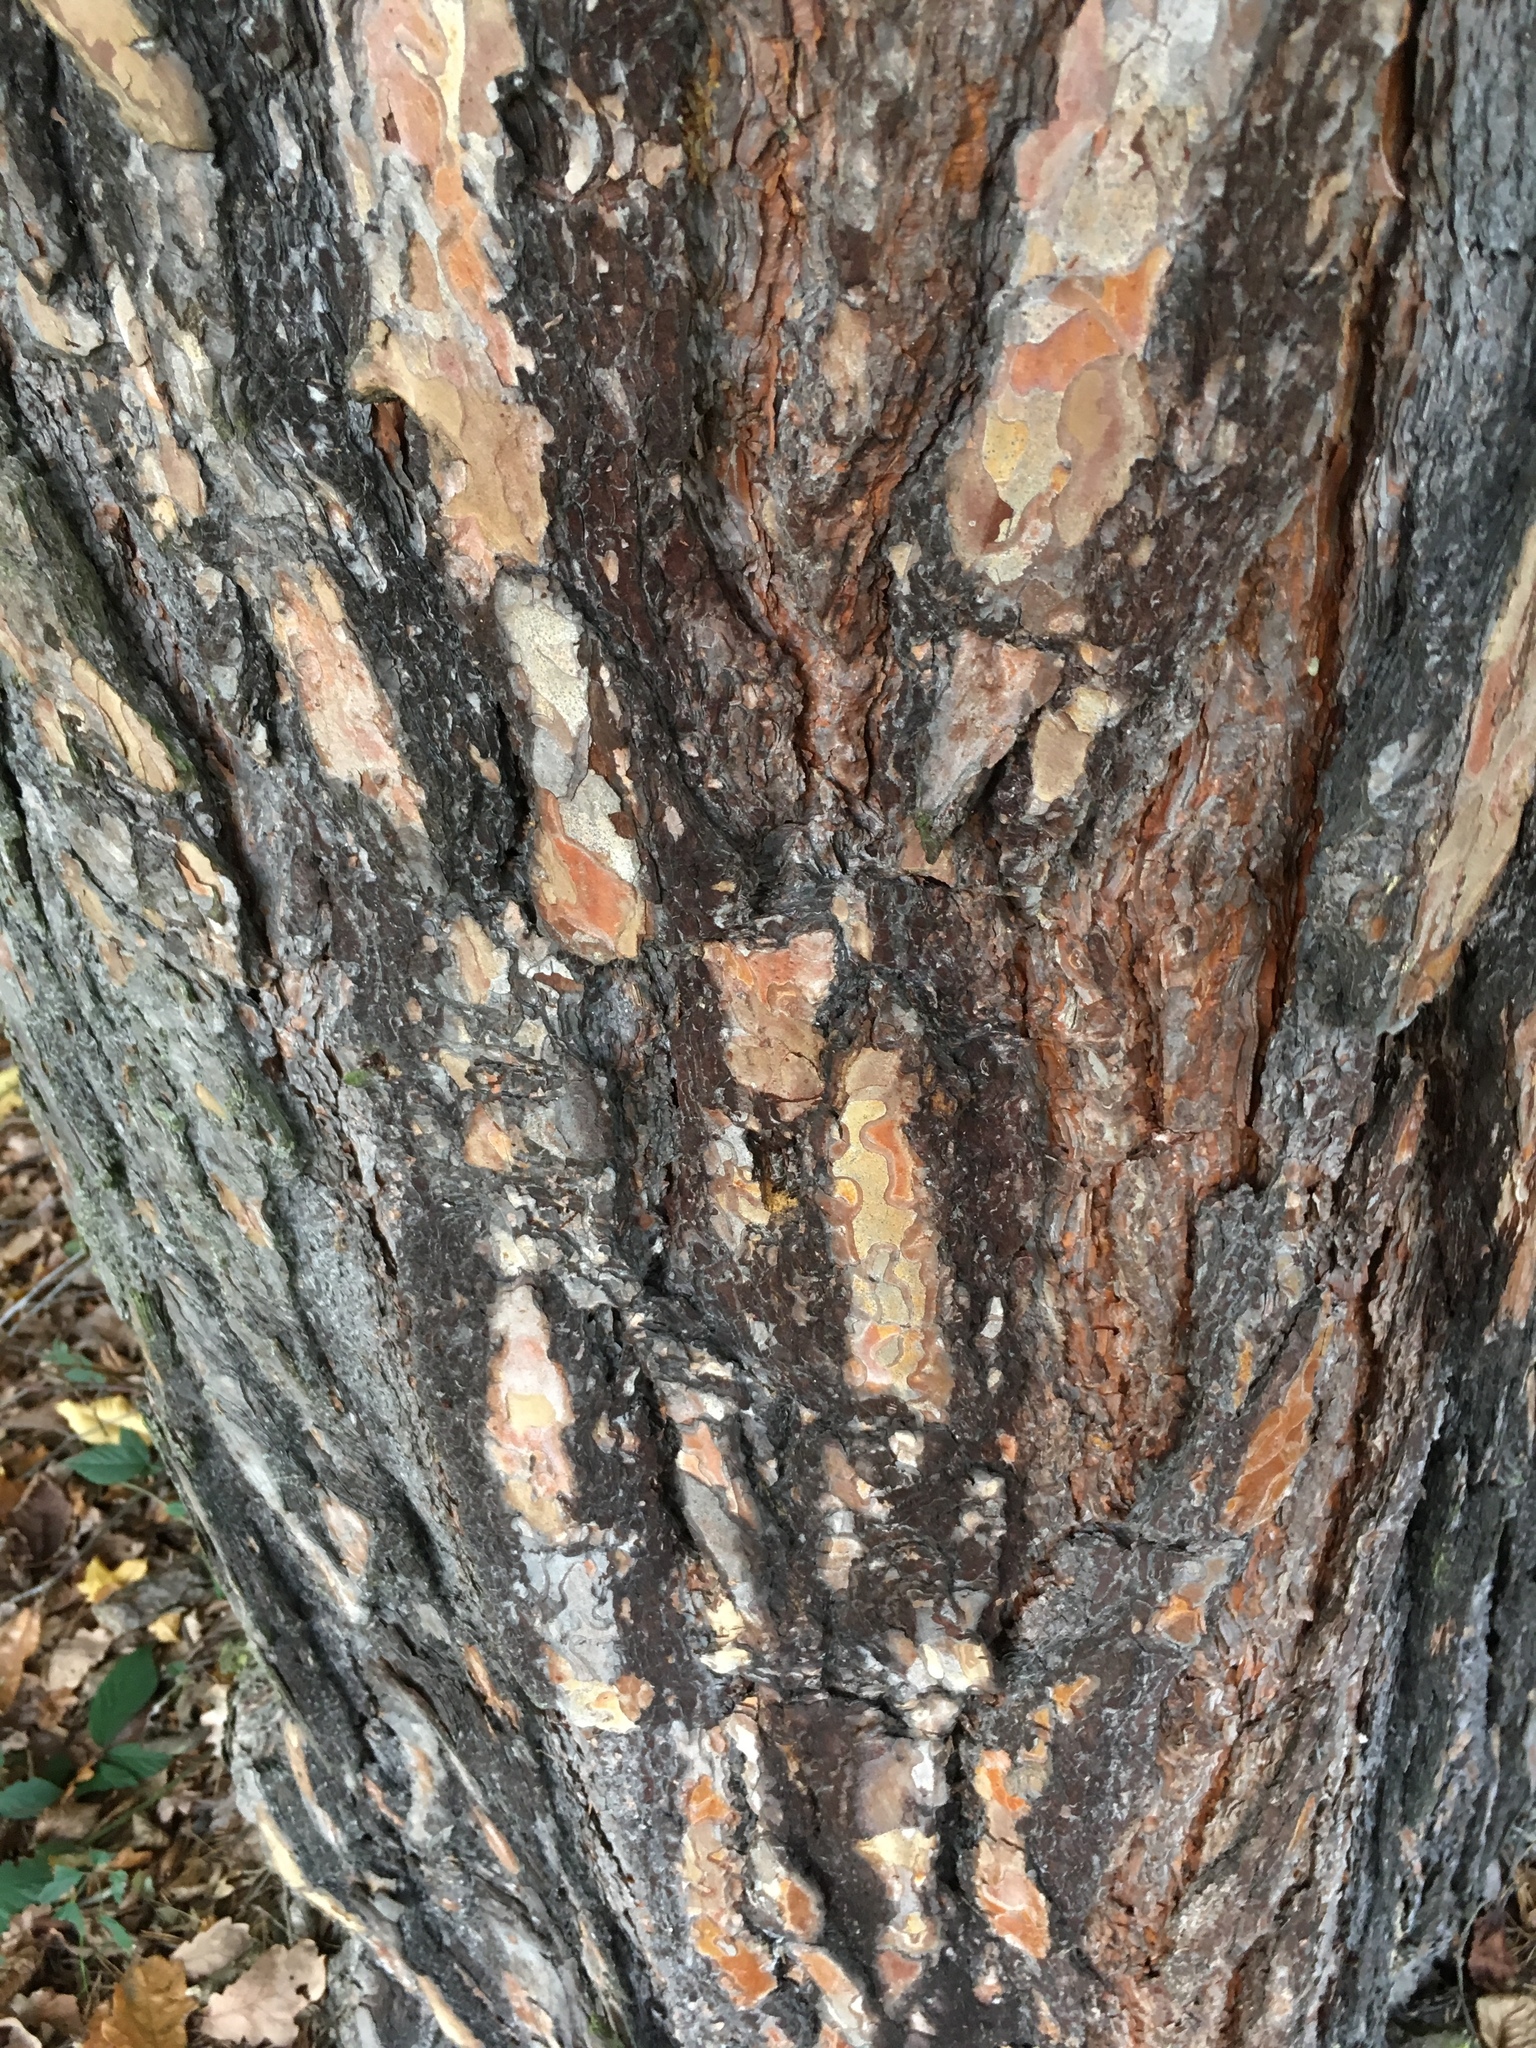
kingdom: Plantae
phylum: Tracheophyta
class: Pinopsida
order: Pinales
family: Pinaceae
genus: Pinus
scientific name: Pinus sylvestris
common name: Scots pine
